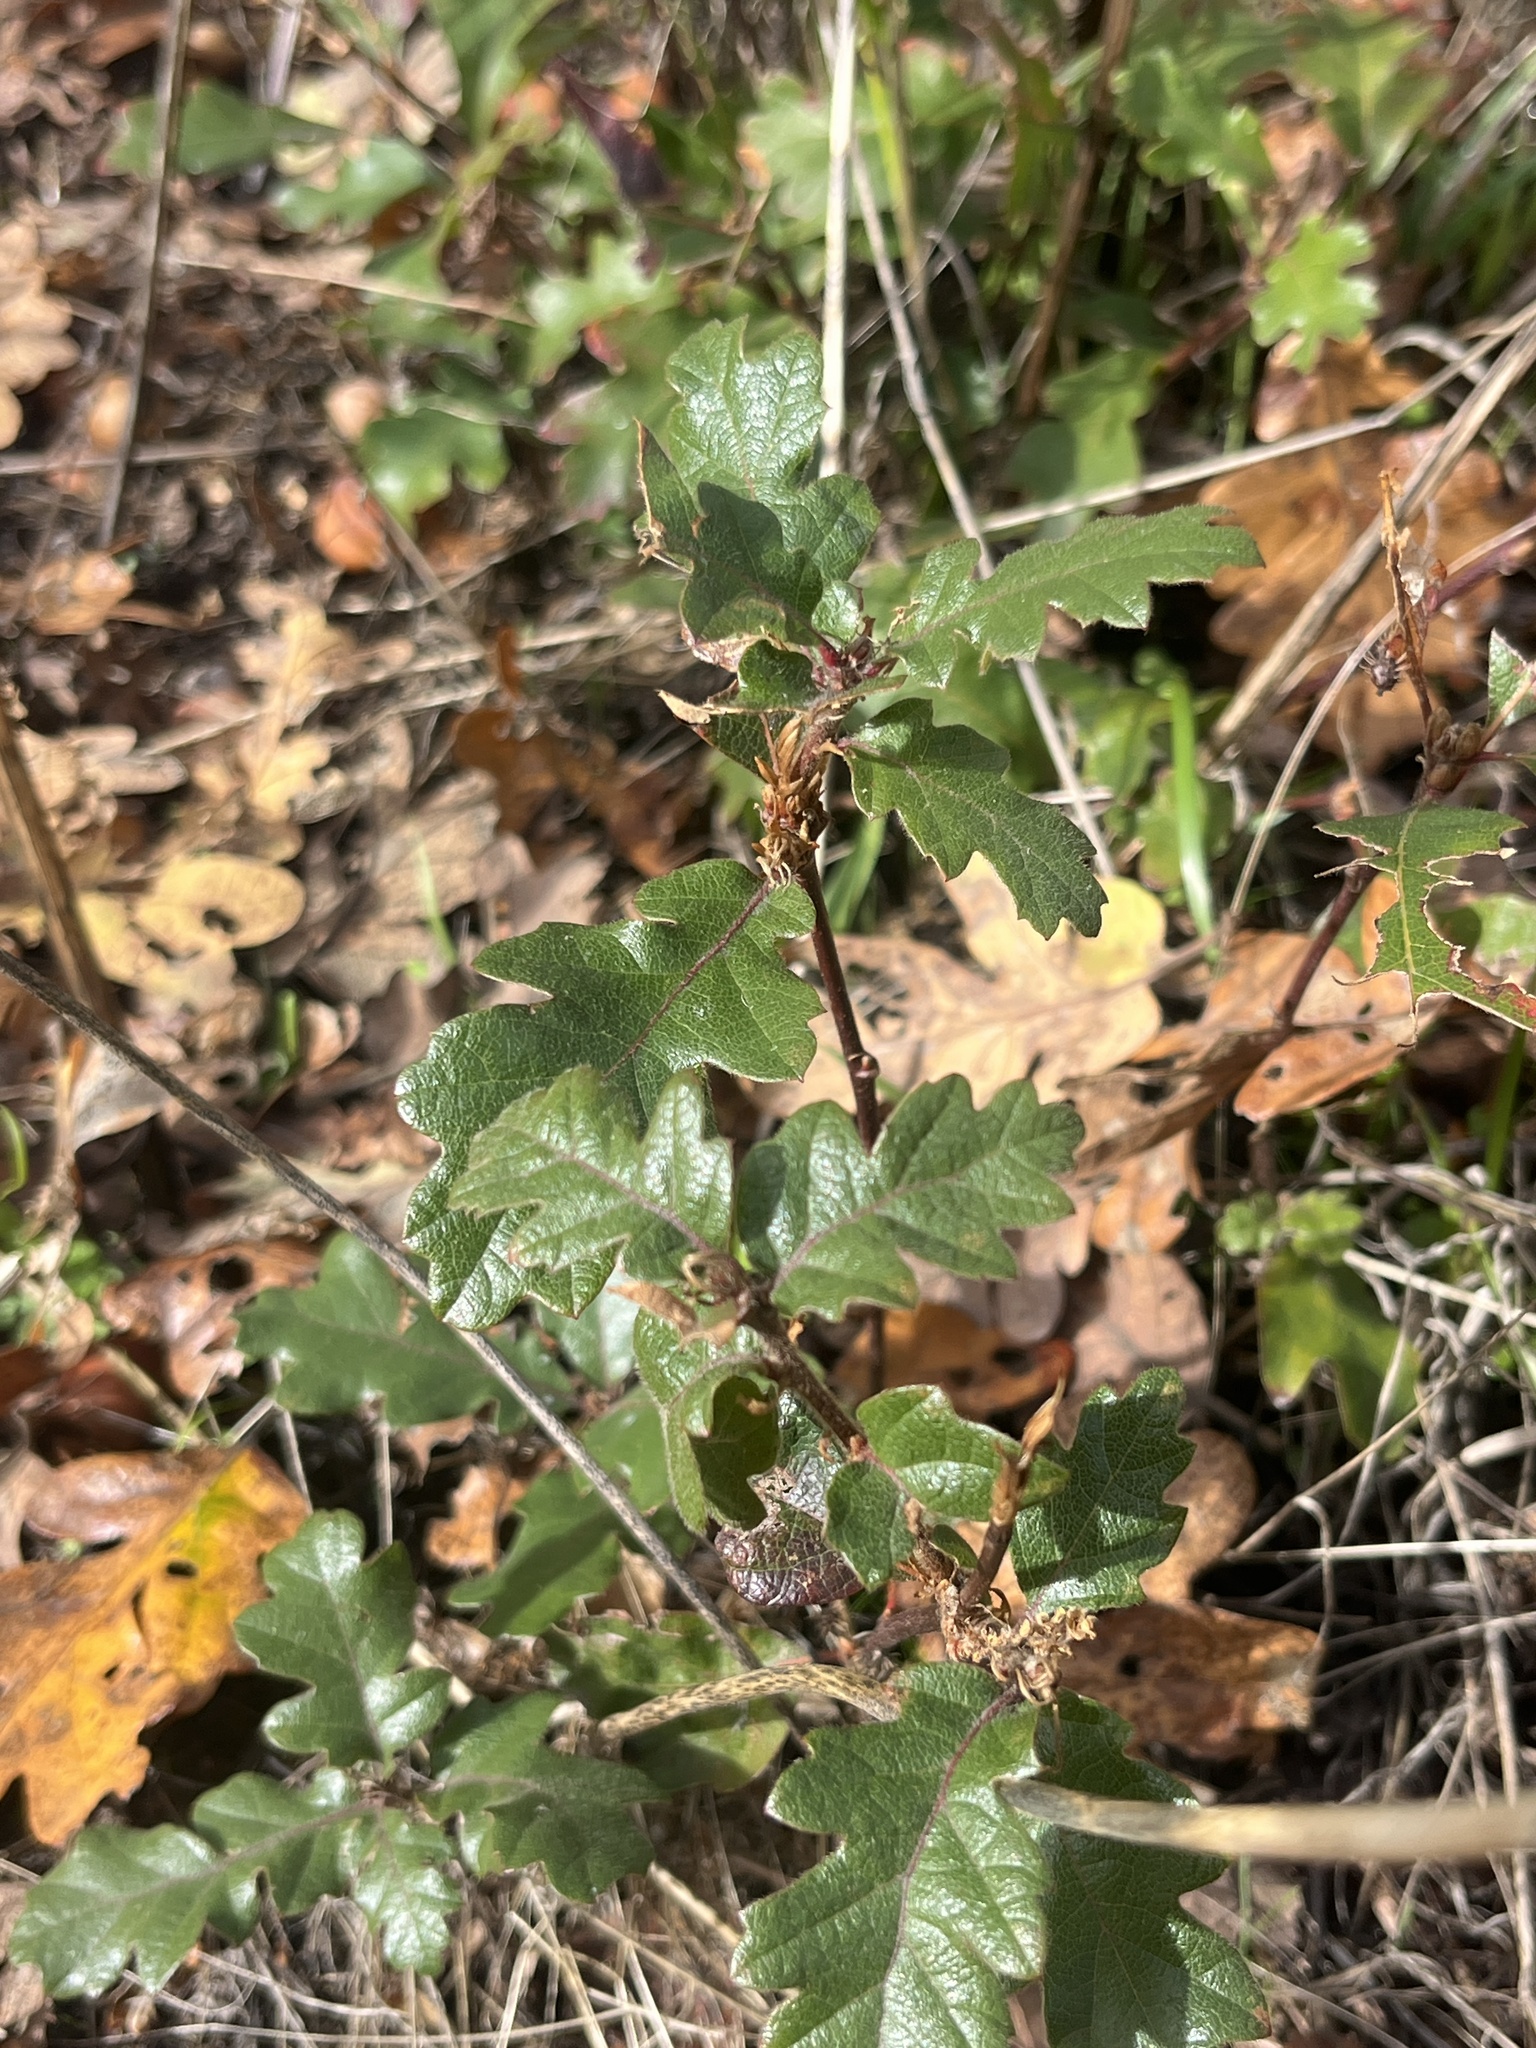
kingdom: Plantae
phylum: Tracheophyta
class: Magnoliopsida
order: Fagales
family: Fagaceae
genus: Quercus
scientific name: Quercus garryana
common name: Garry oak
